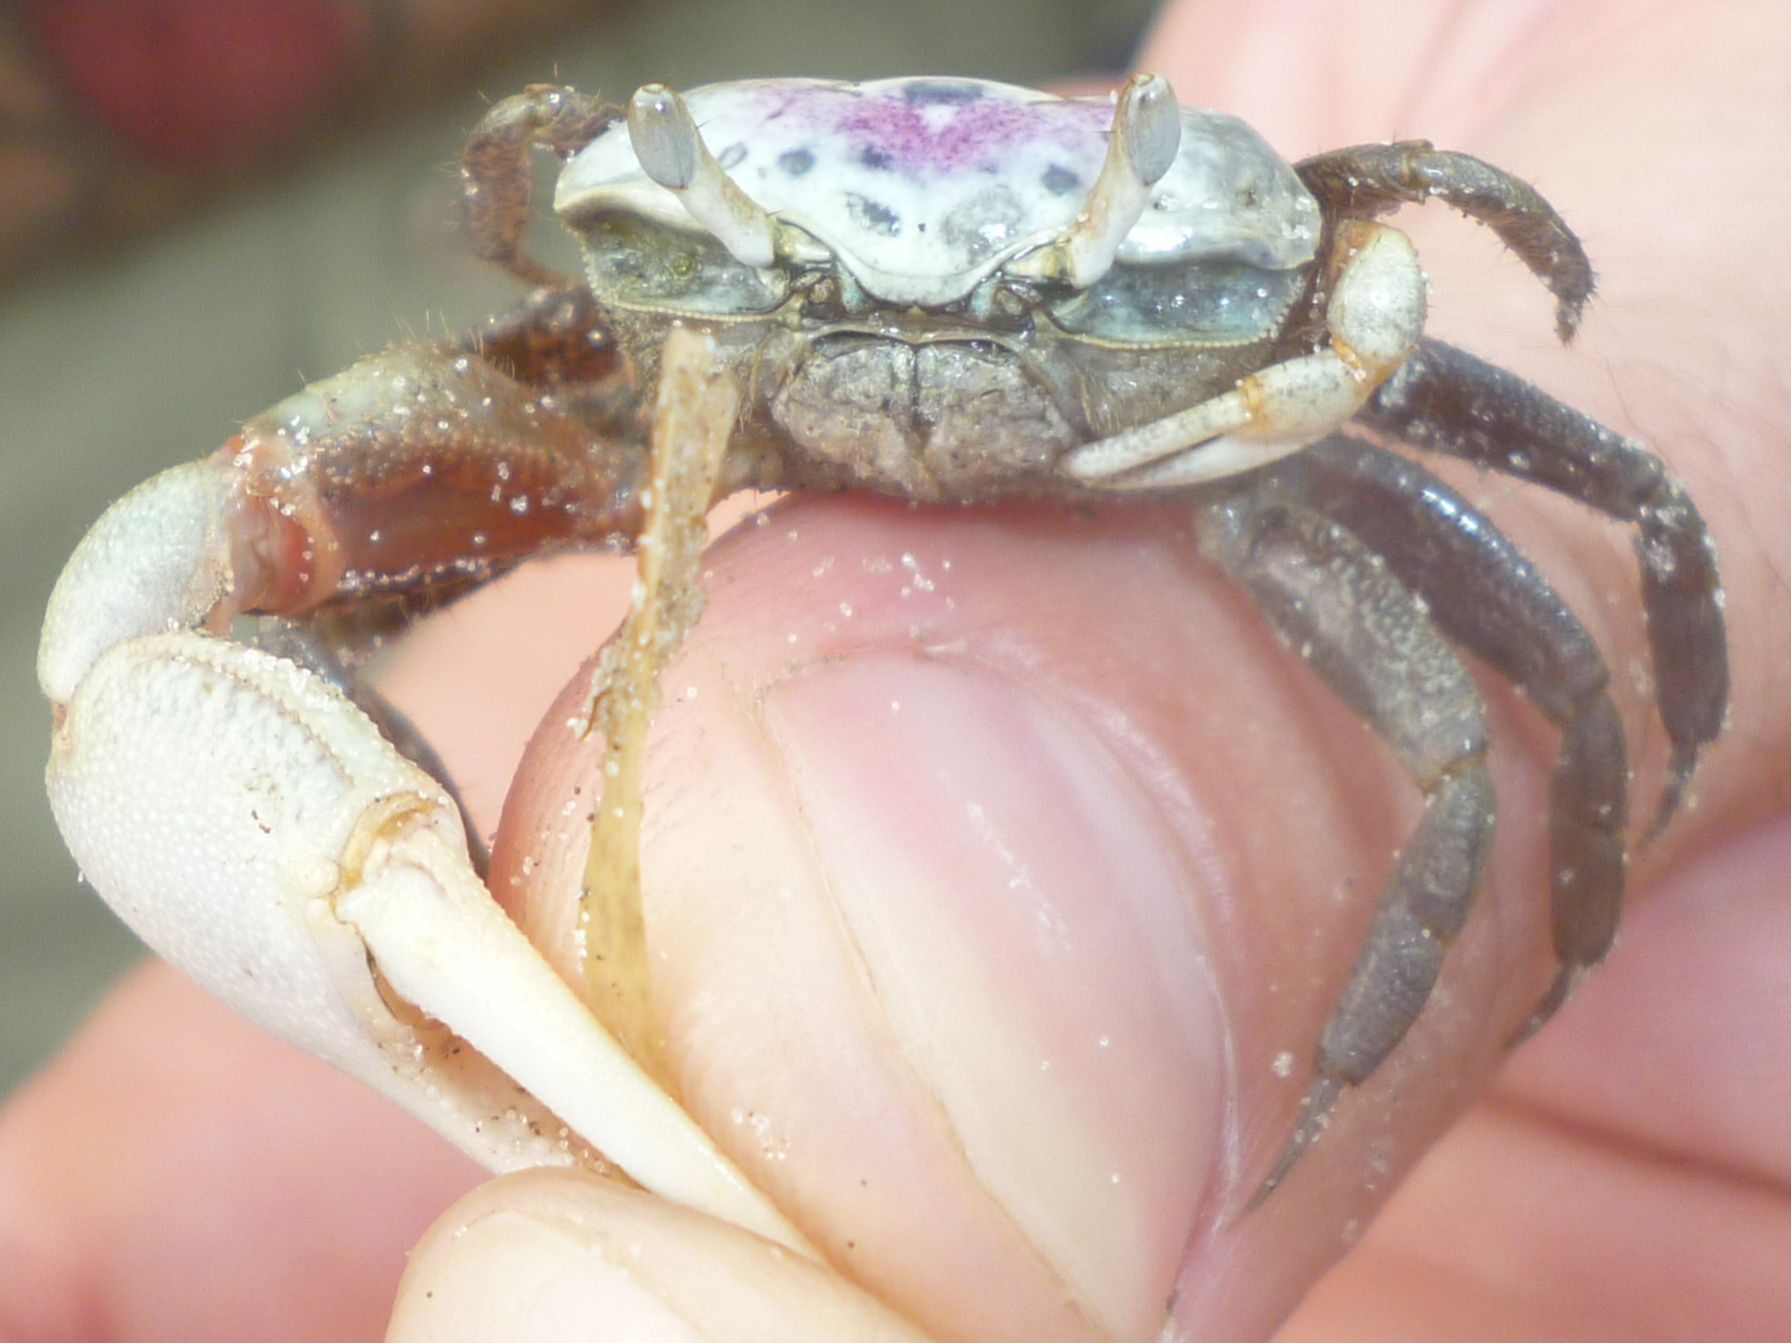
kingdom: Animalia
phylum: Arthropoda
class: Malacostraca
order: Decapoda
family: Ocypodidae
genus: Leptuca
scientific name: Leptuca pugilator
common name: Atlantic sand fiddler crab
